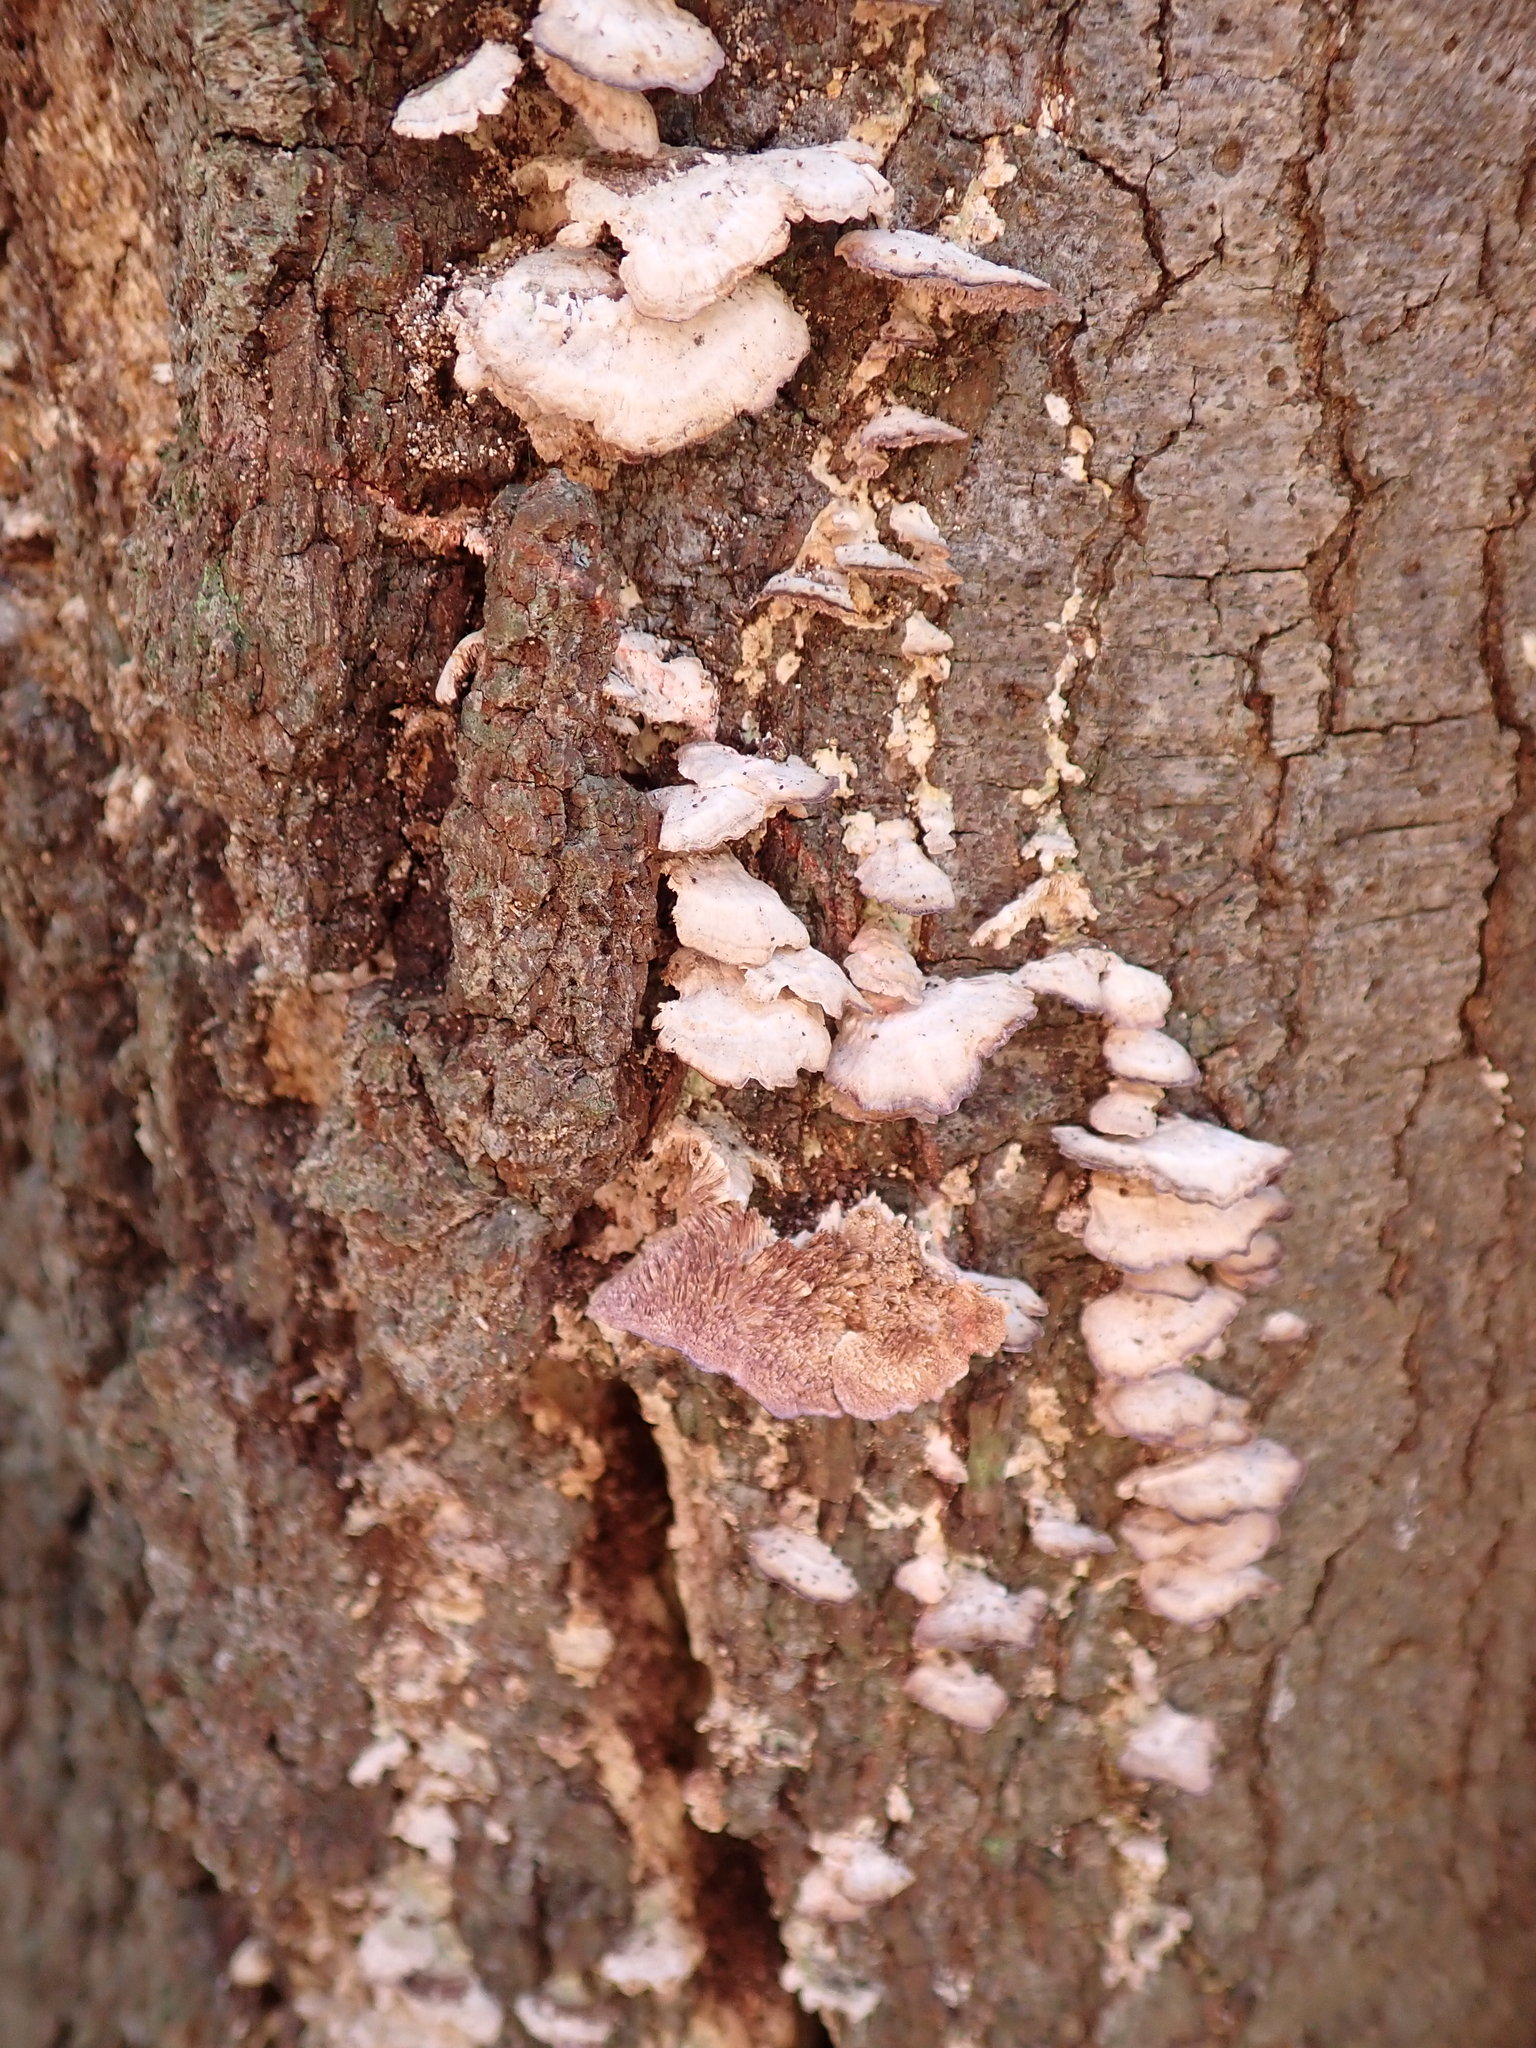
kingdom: Fungi
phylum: Basidiomycota
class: Agaricomycetes
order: Hymenochaetales
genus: Trichaptum
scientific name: Trichaptum biforme
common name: Violet-toothed polypore
